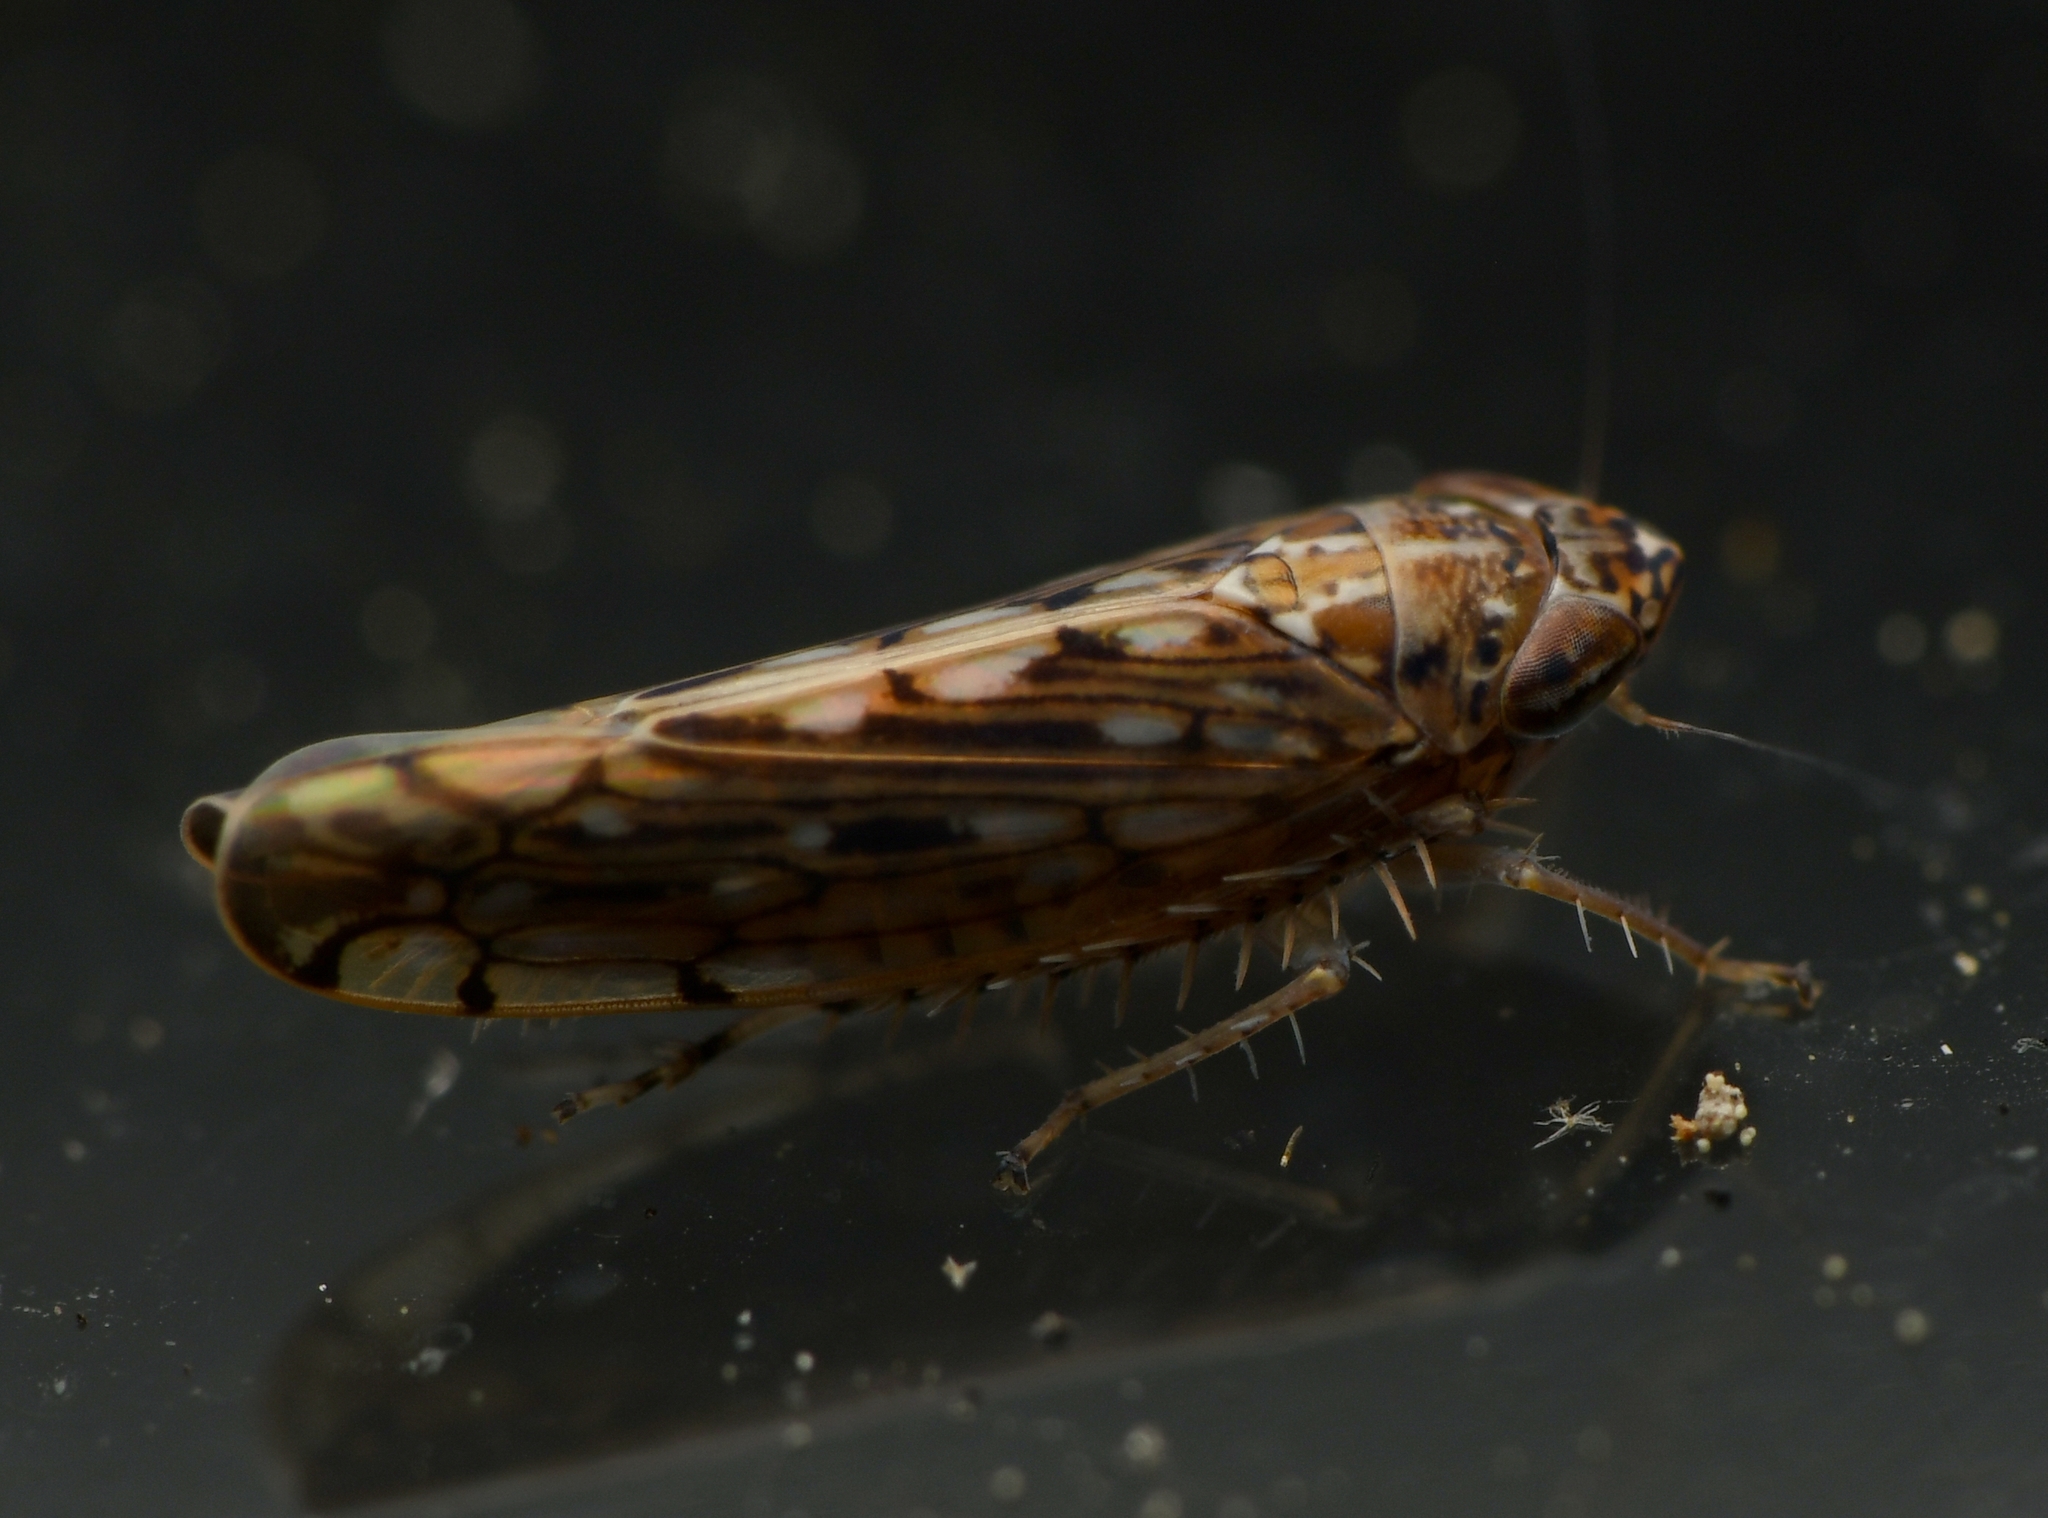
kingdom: Animalia
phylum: Arthropoda
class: Insecta
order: Hemiptera
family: Cicadellidae
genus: Osbornellus
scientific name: Osbornellus clarus
